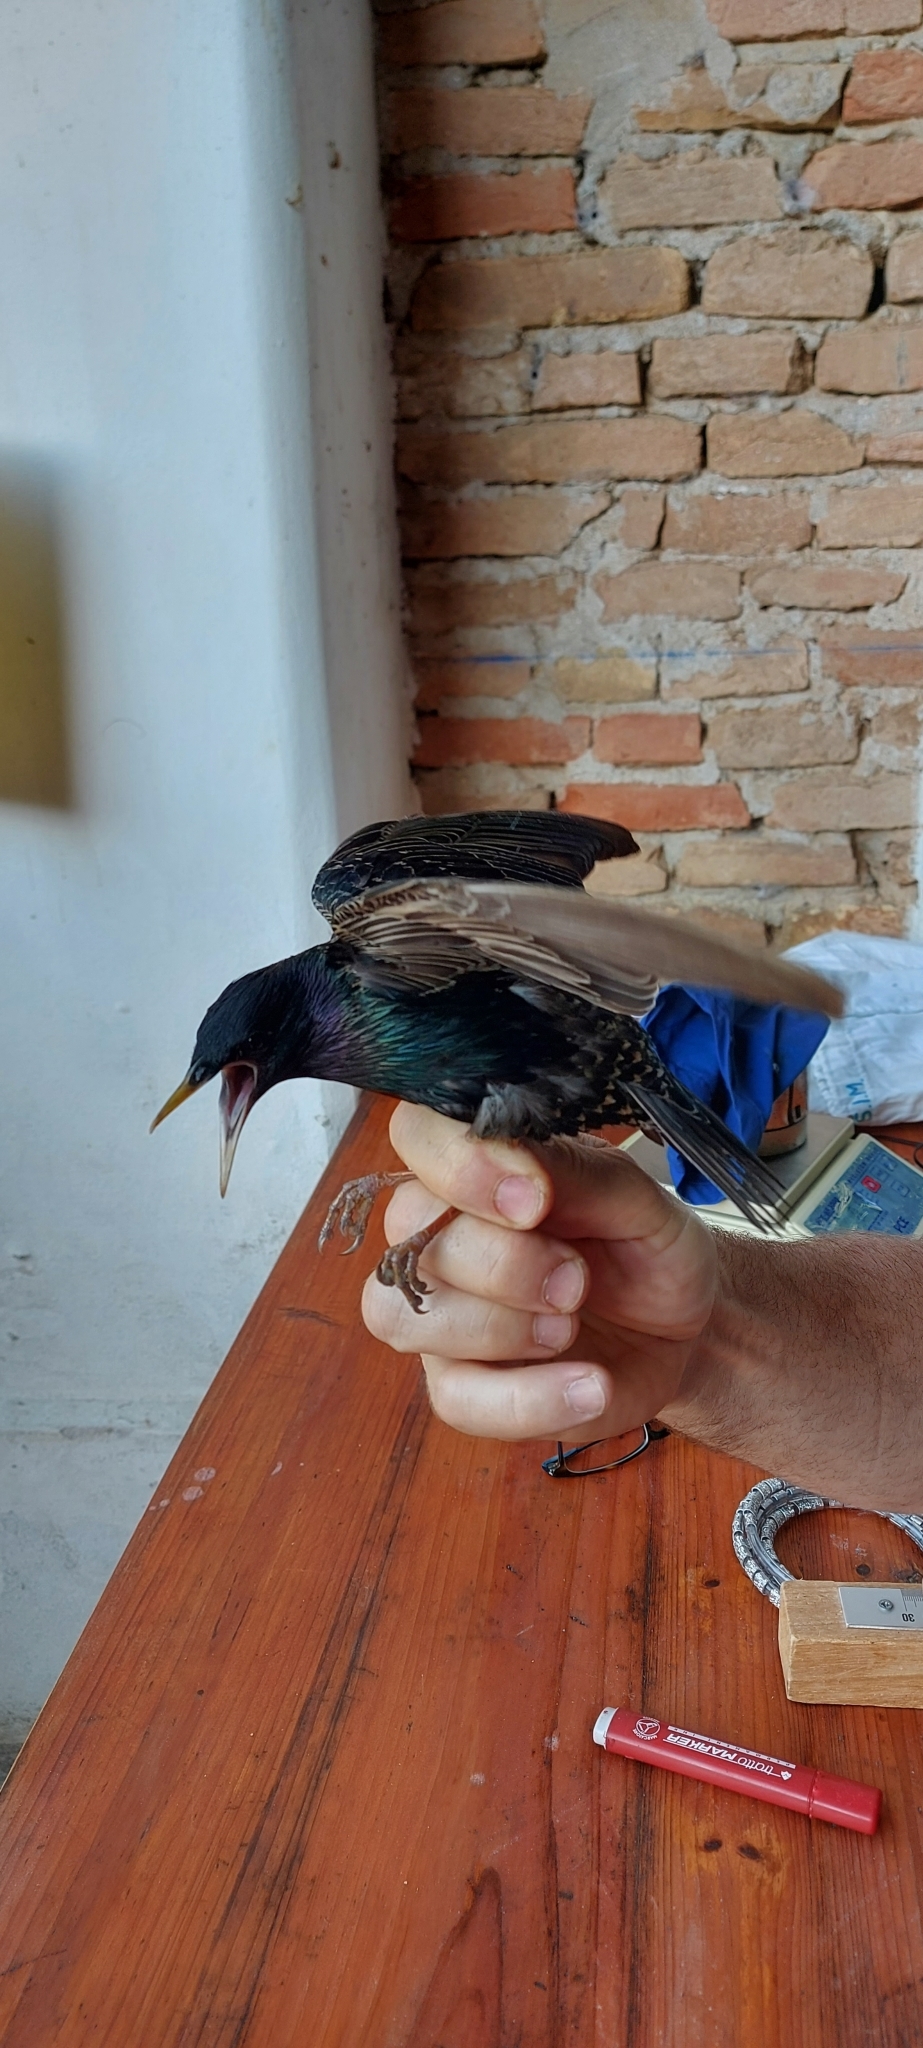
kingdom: Animalia
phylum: Chordata
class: Aves
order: Passeriformes
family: Sturnidae
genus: Sturnus
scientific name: Sturnus vulgaris
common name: Common starling
